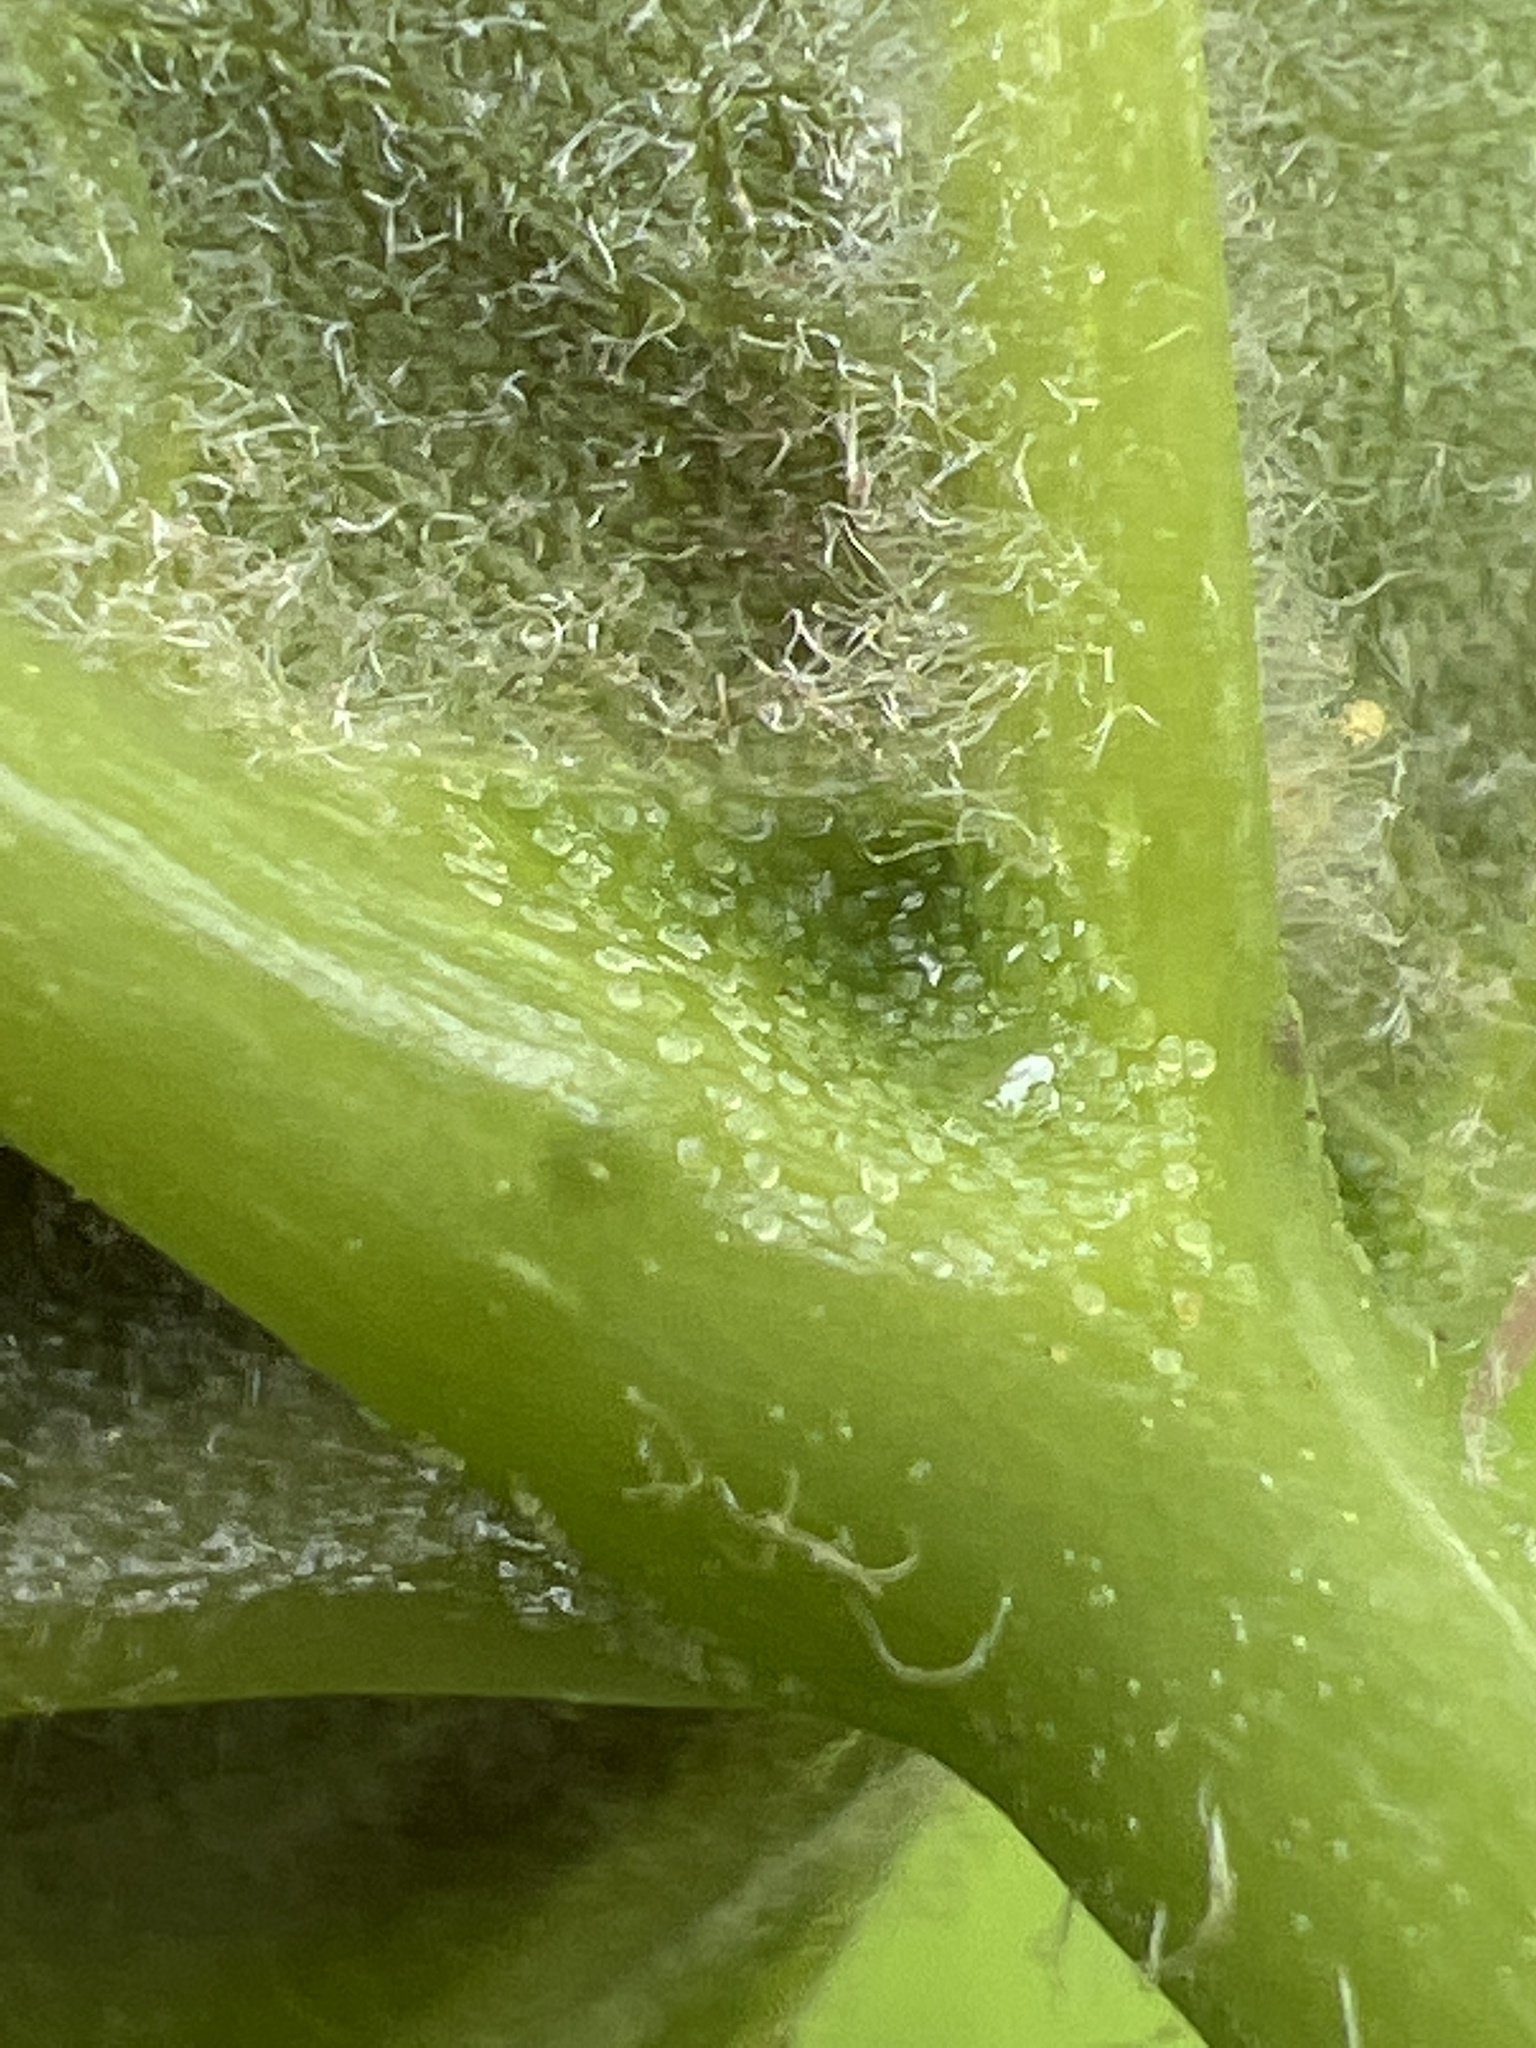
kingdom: Plantae
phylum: Tracheophyta
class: Magnoliopsida
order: Lamiales
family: Bignoniaceae
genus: Catalpa
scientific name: Catalpa speciosa
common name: Northern catalpa
